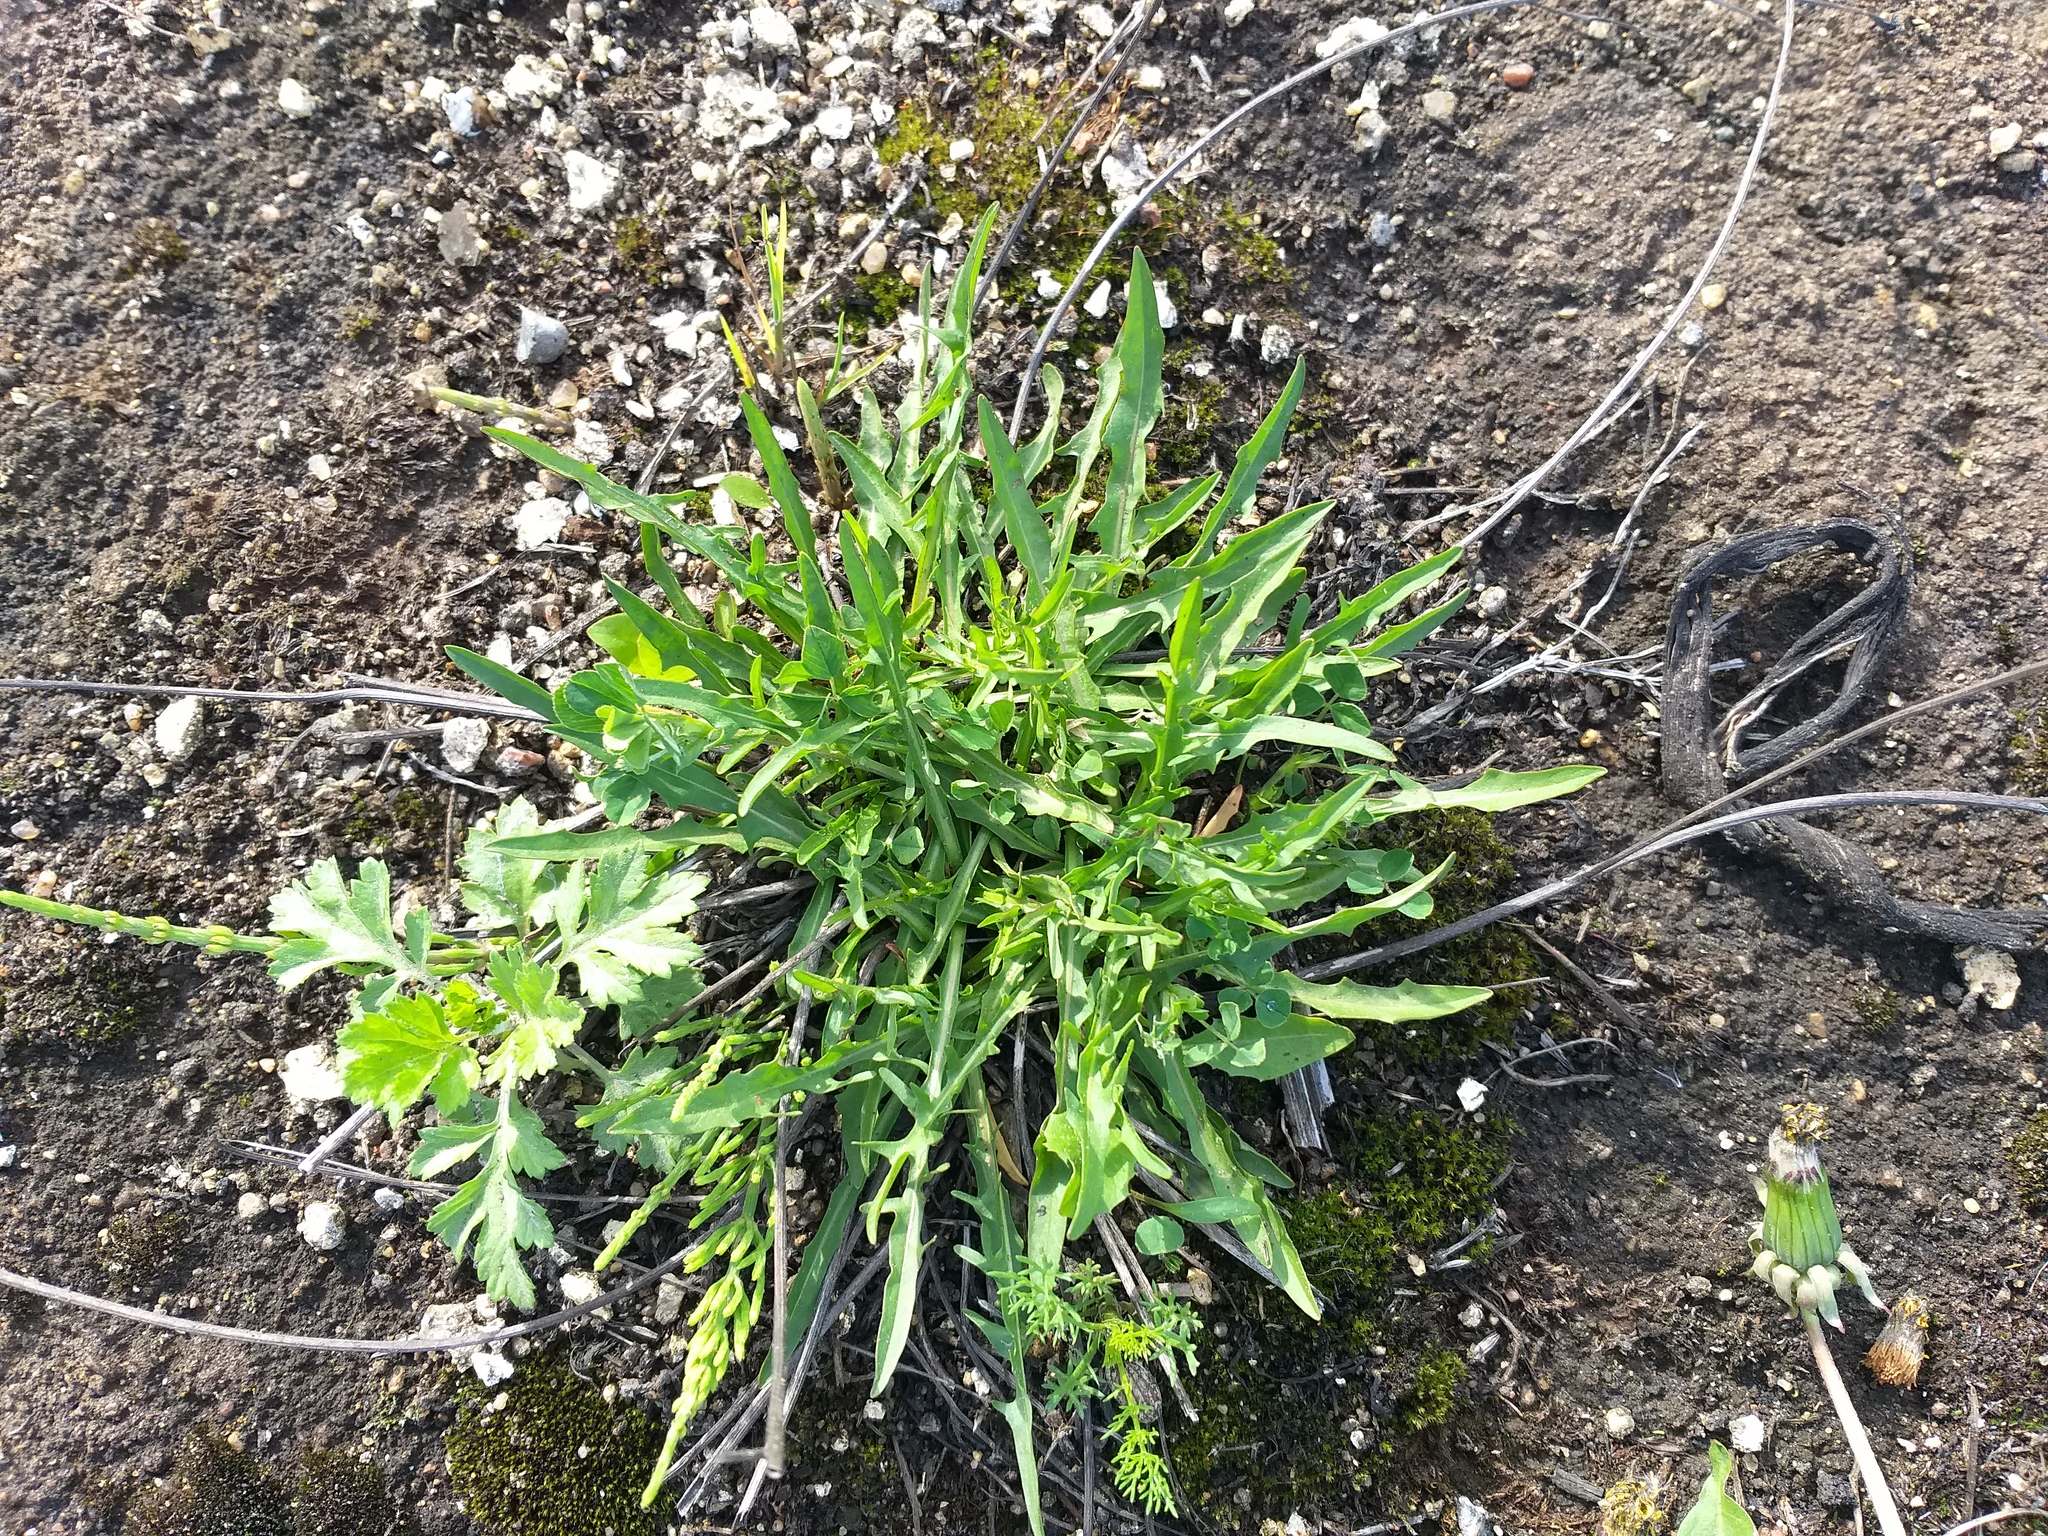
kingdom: Plantae
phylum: Tracheophyta
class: Magnoliopsida
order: Asterales
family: Asteraceae
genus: Scorzoneroides
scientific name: Scorzoneroides autumnalis
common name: Autumn hawkbit
